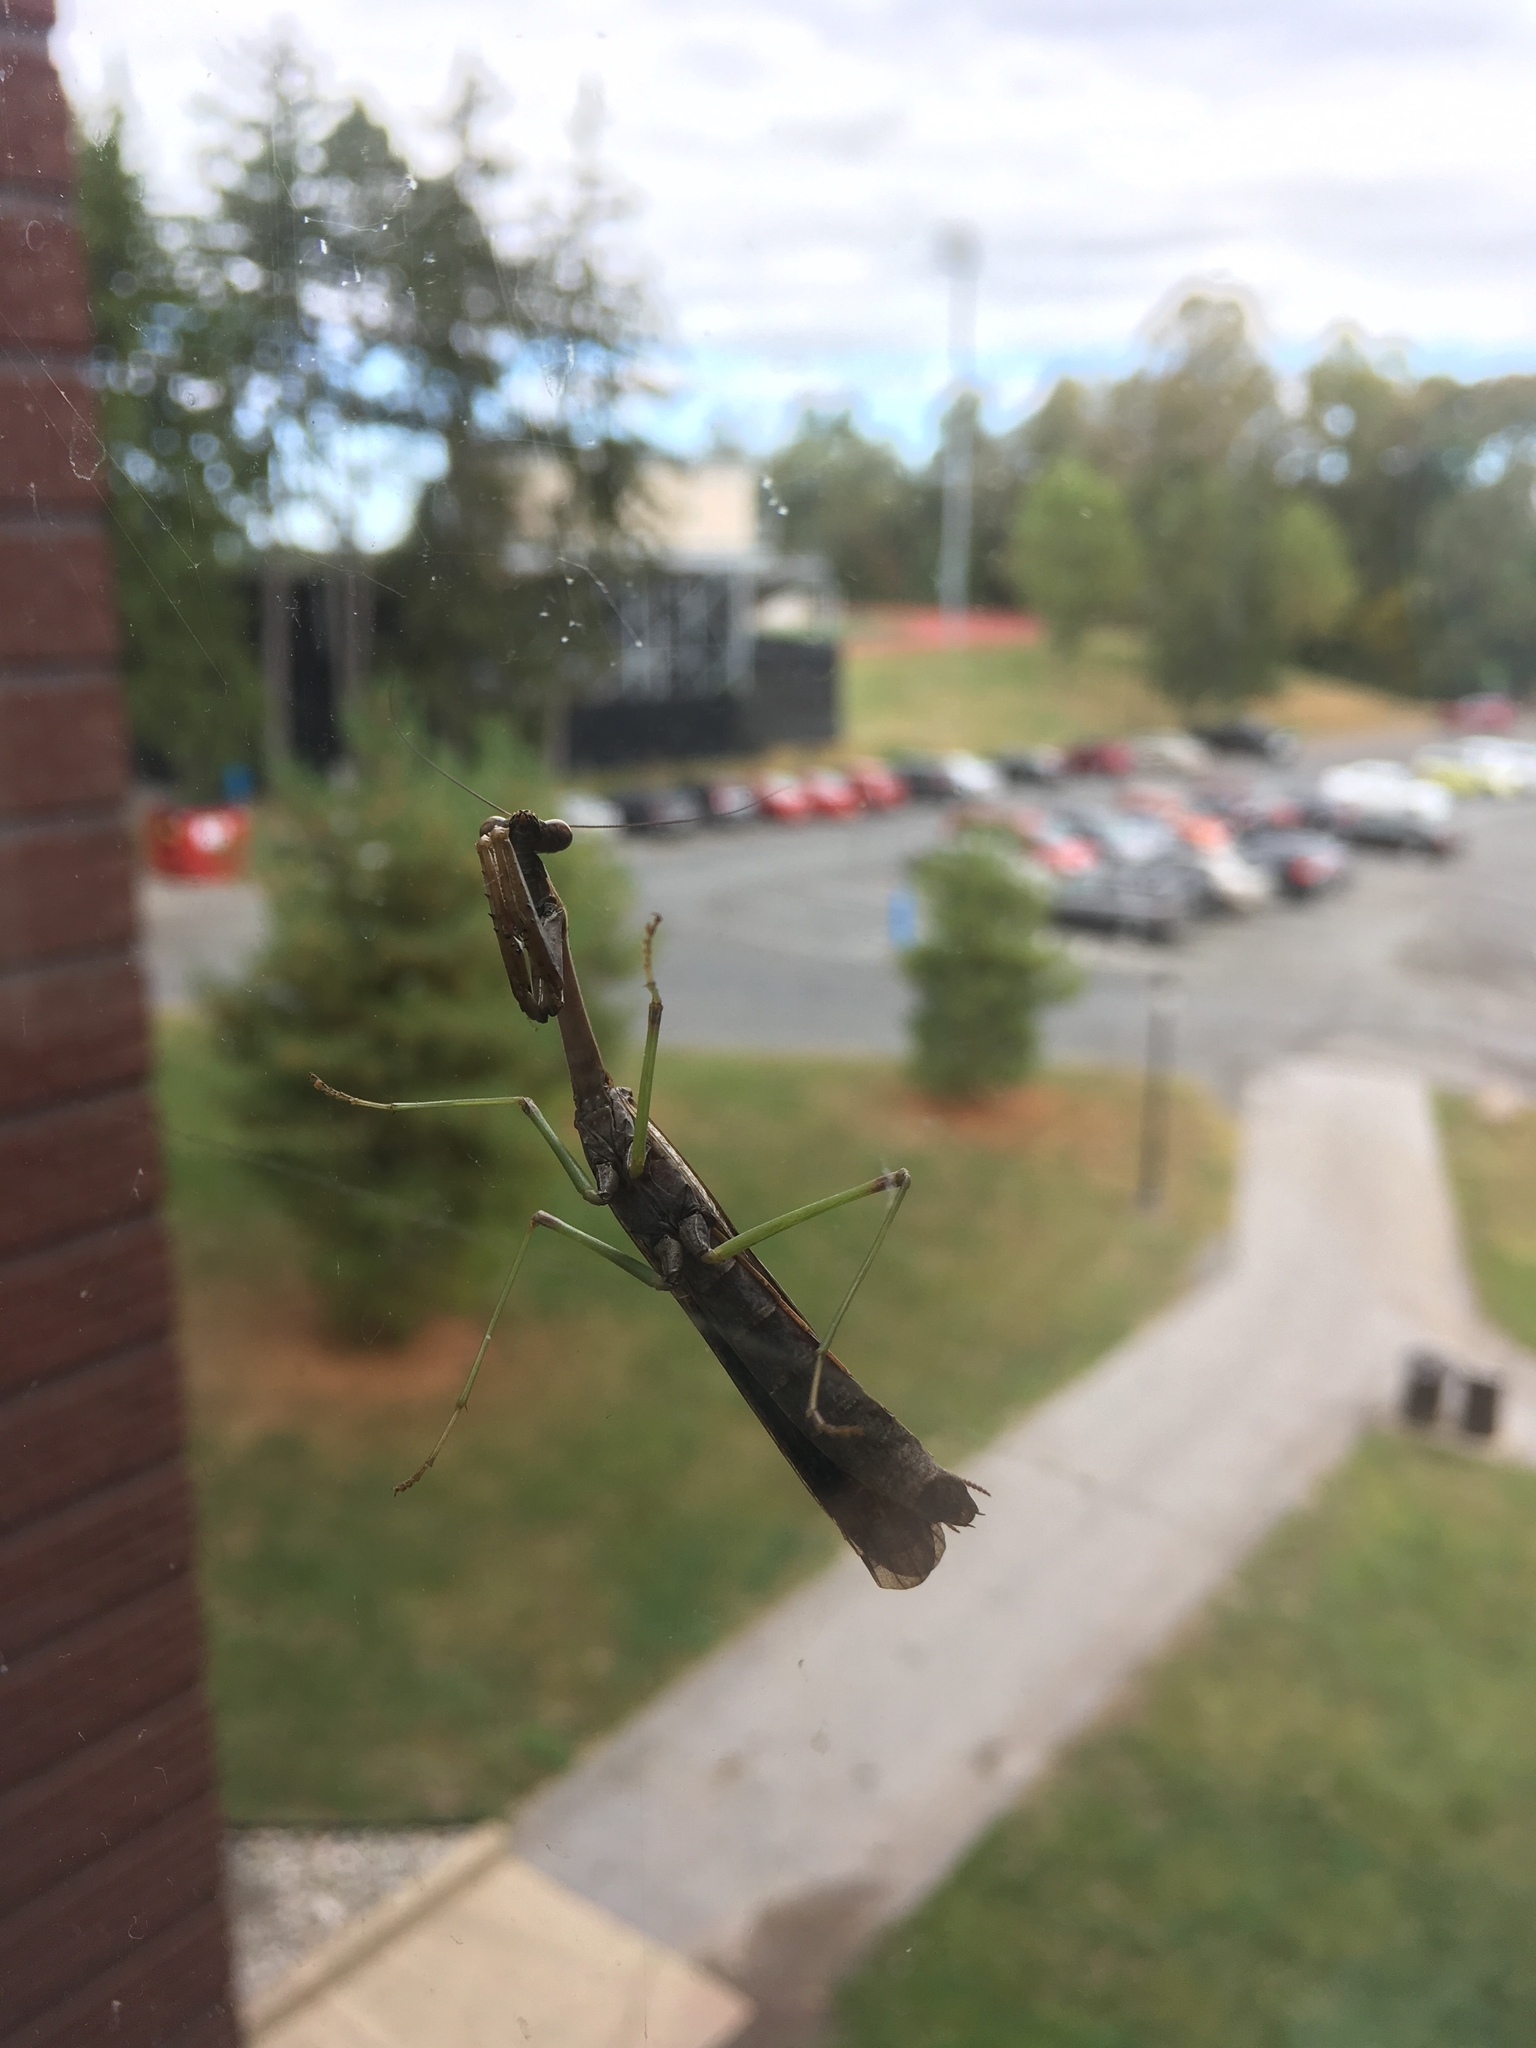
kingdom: Animalia
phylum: Arthropoda
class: Insecta
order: Mantodea
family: Mantidae
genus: Stagmomantis
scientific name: Stagmomantis carolina
